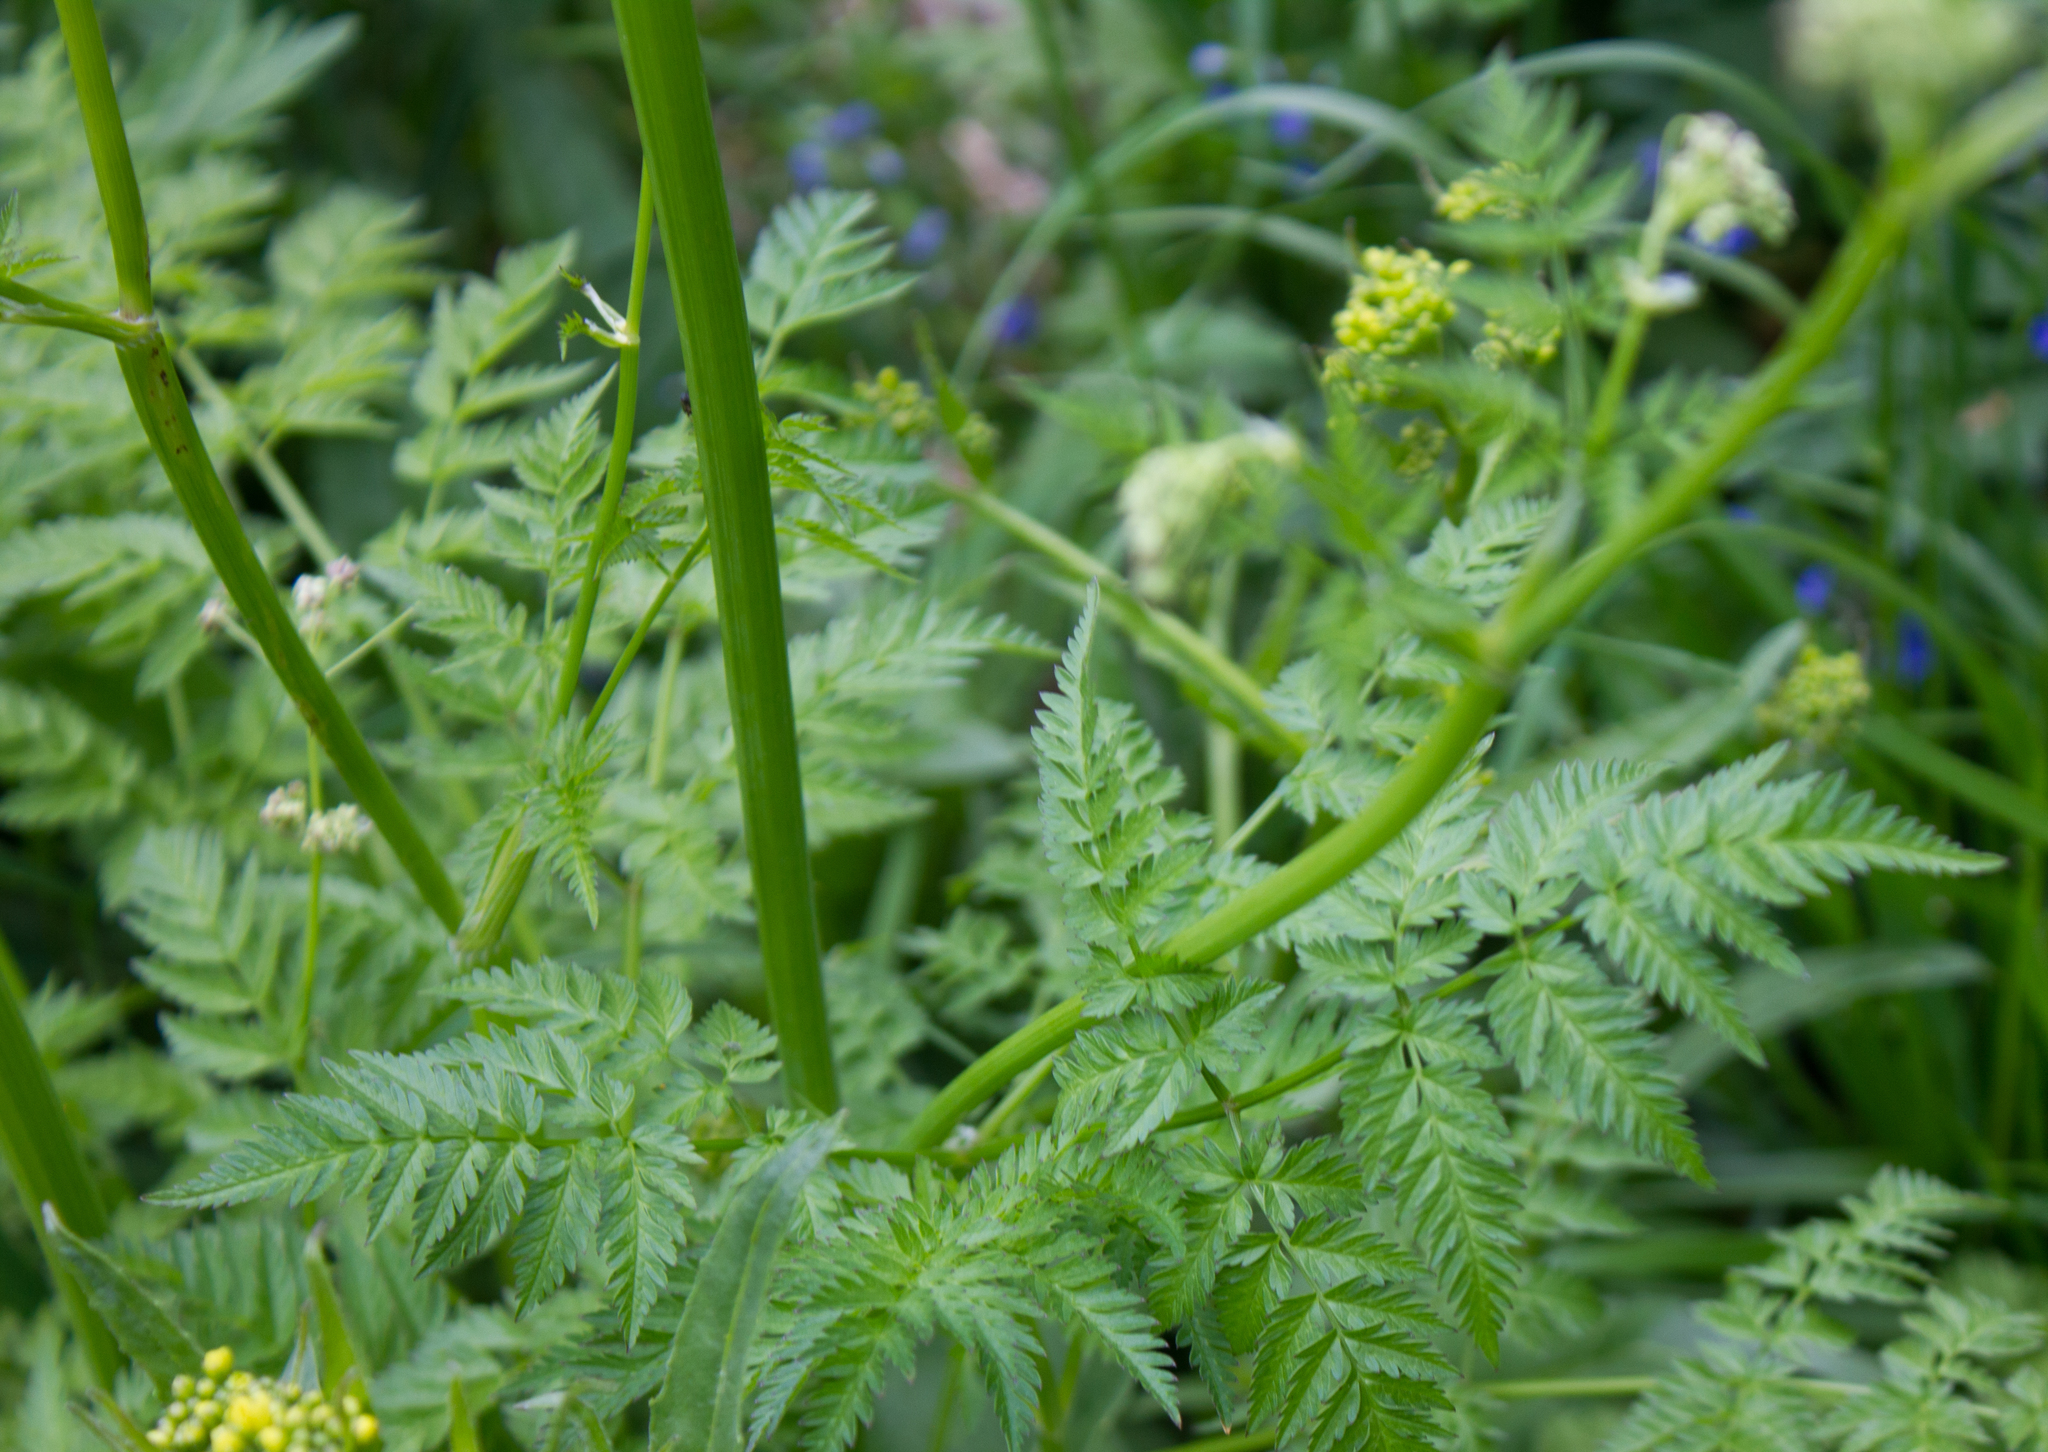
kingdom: Plantae
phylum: Tracheophyta
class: Magnoliopsida
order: Apiales
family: Apiaceae
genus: Anthriscus
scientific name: Anthriscus sylvestris
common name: Cow parsley
